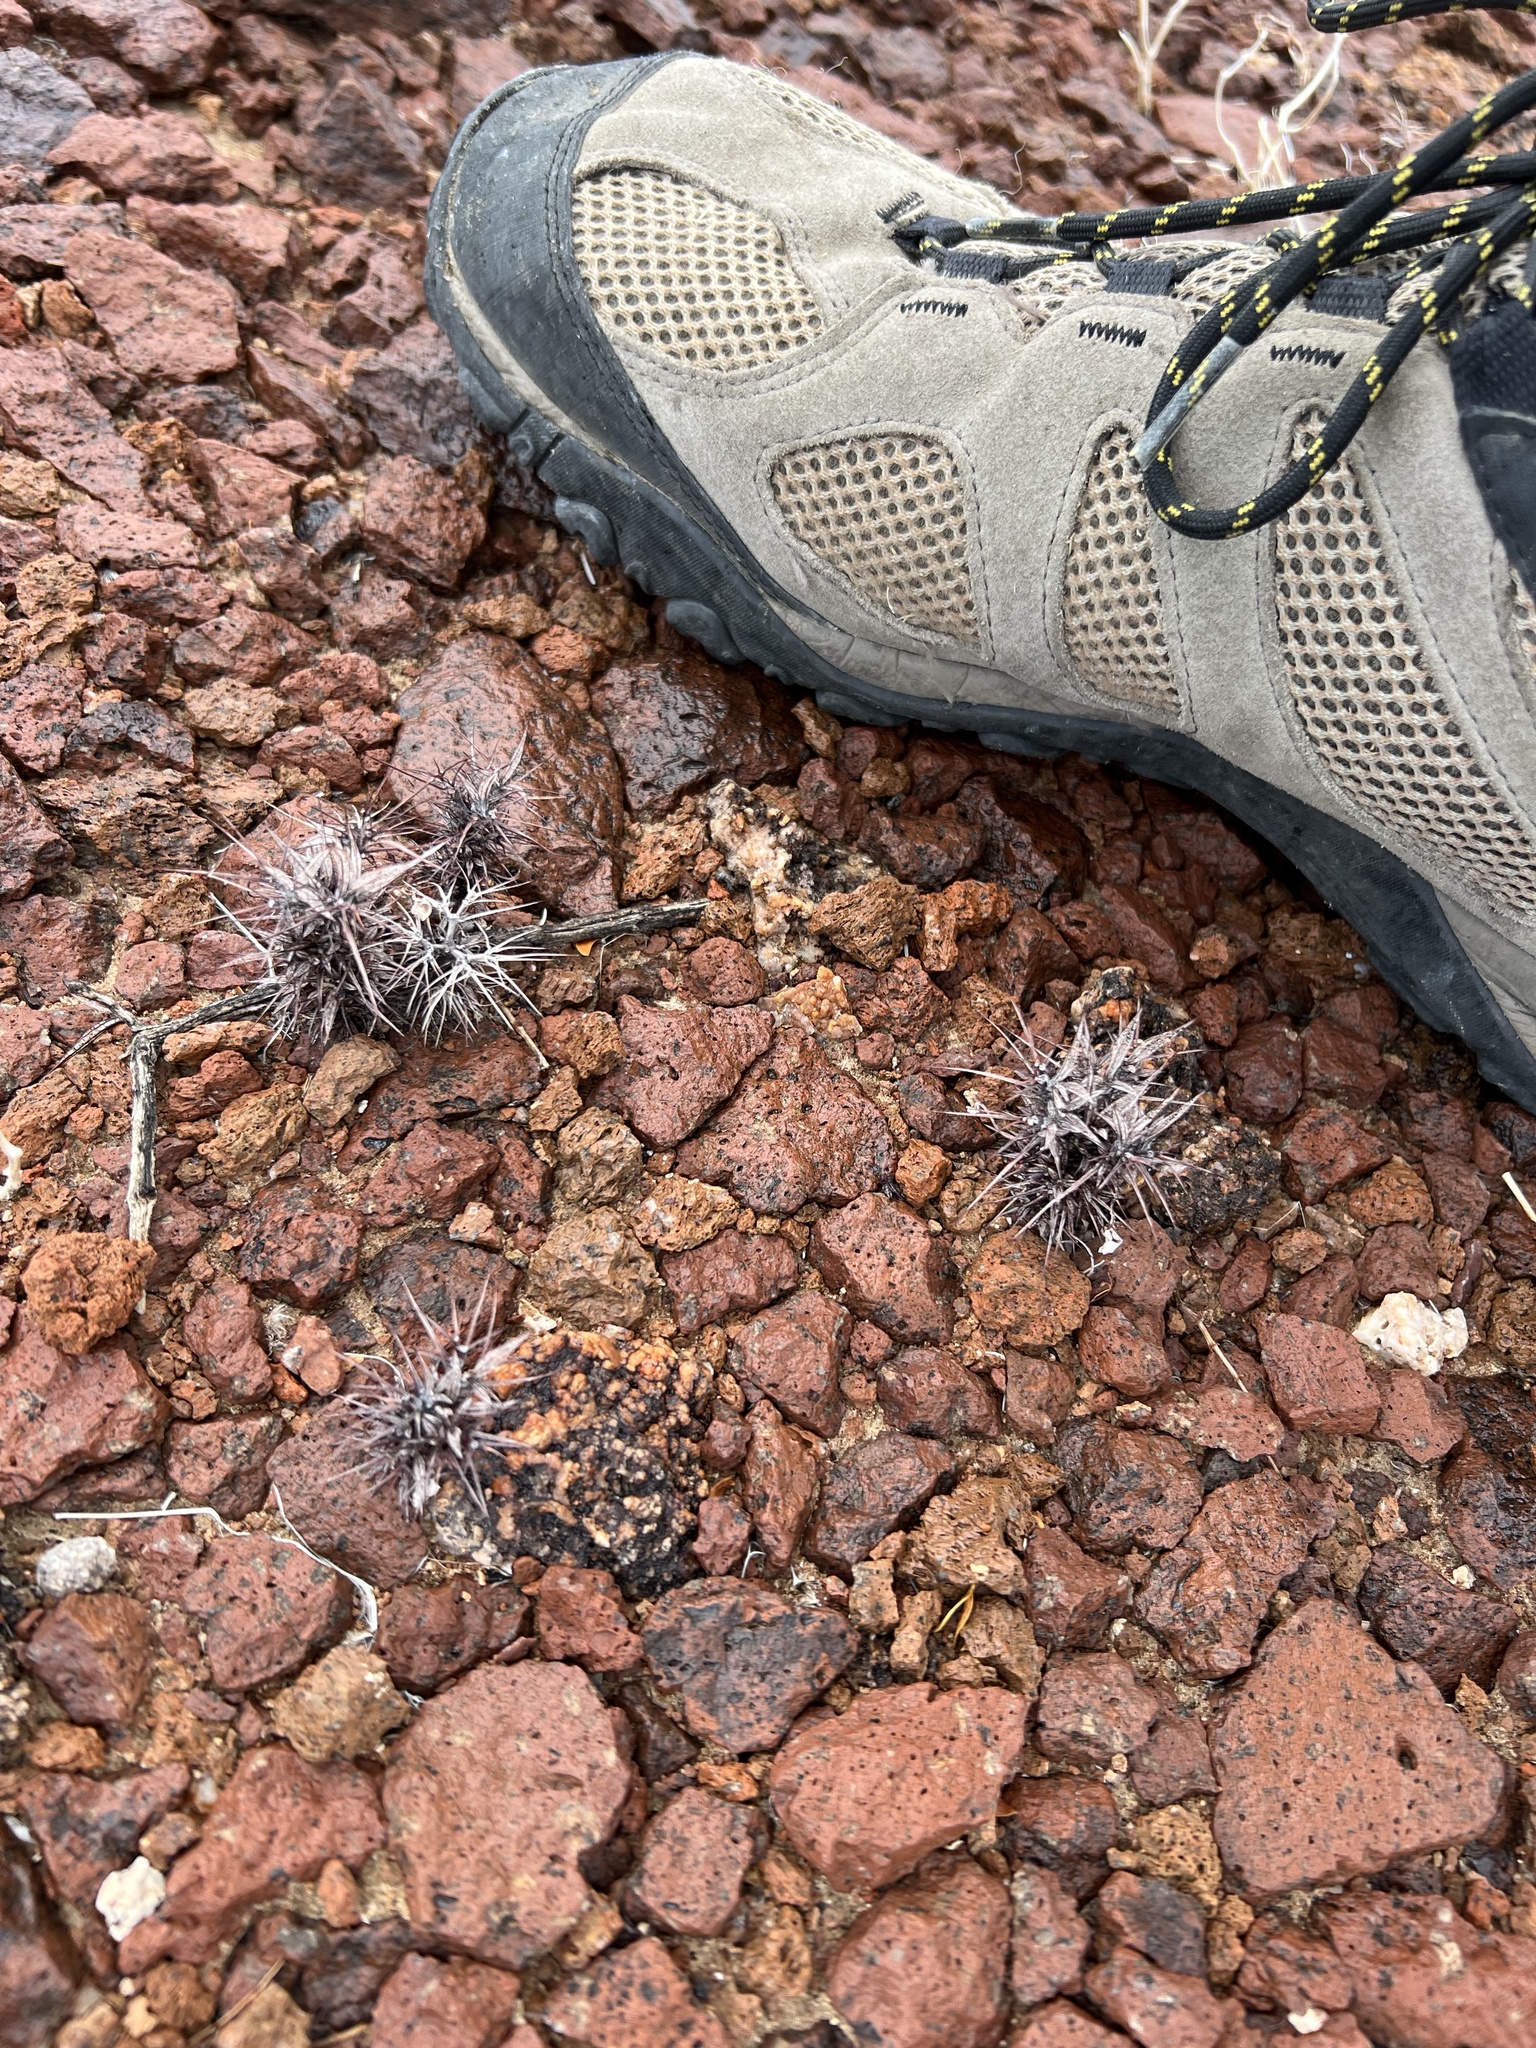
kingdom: Plantae
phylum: Tracheophyta
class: Magnoliopsida
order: Caryophyllales
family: Polygonaceae
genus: Chorizanthe
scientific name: Chorizanthe rigida
